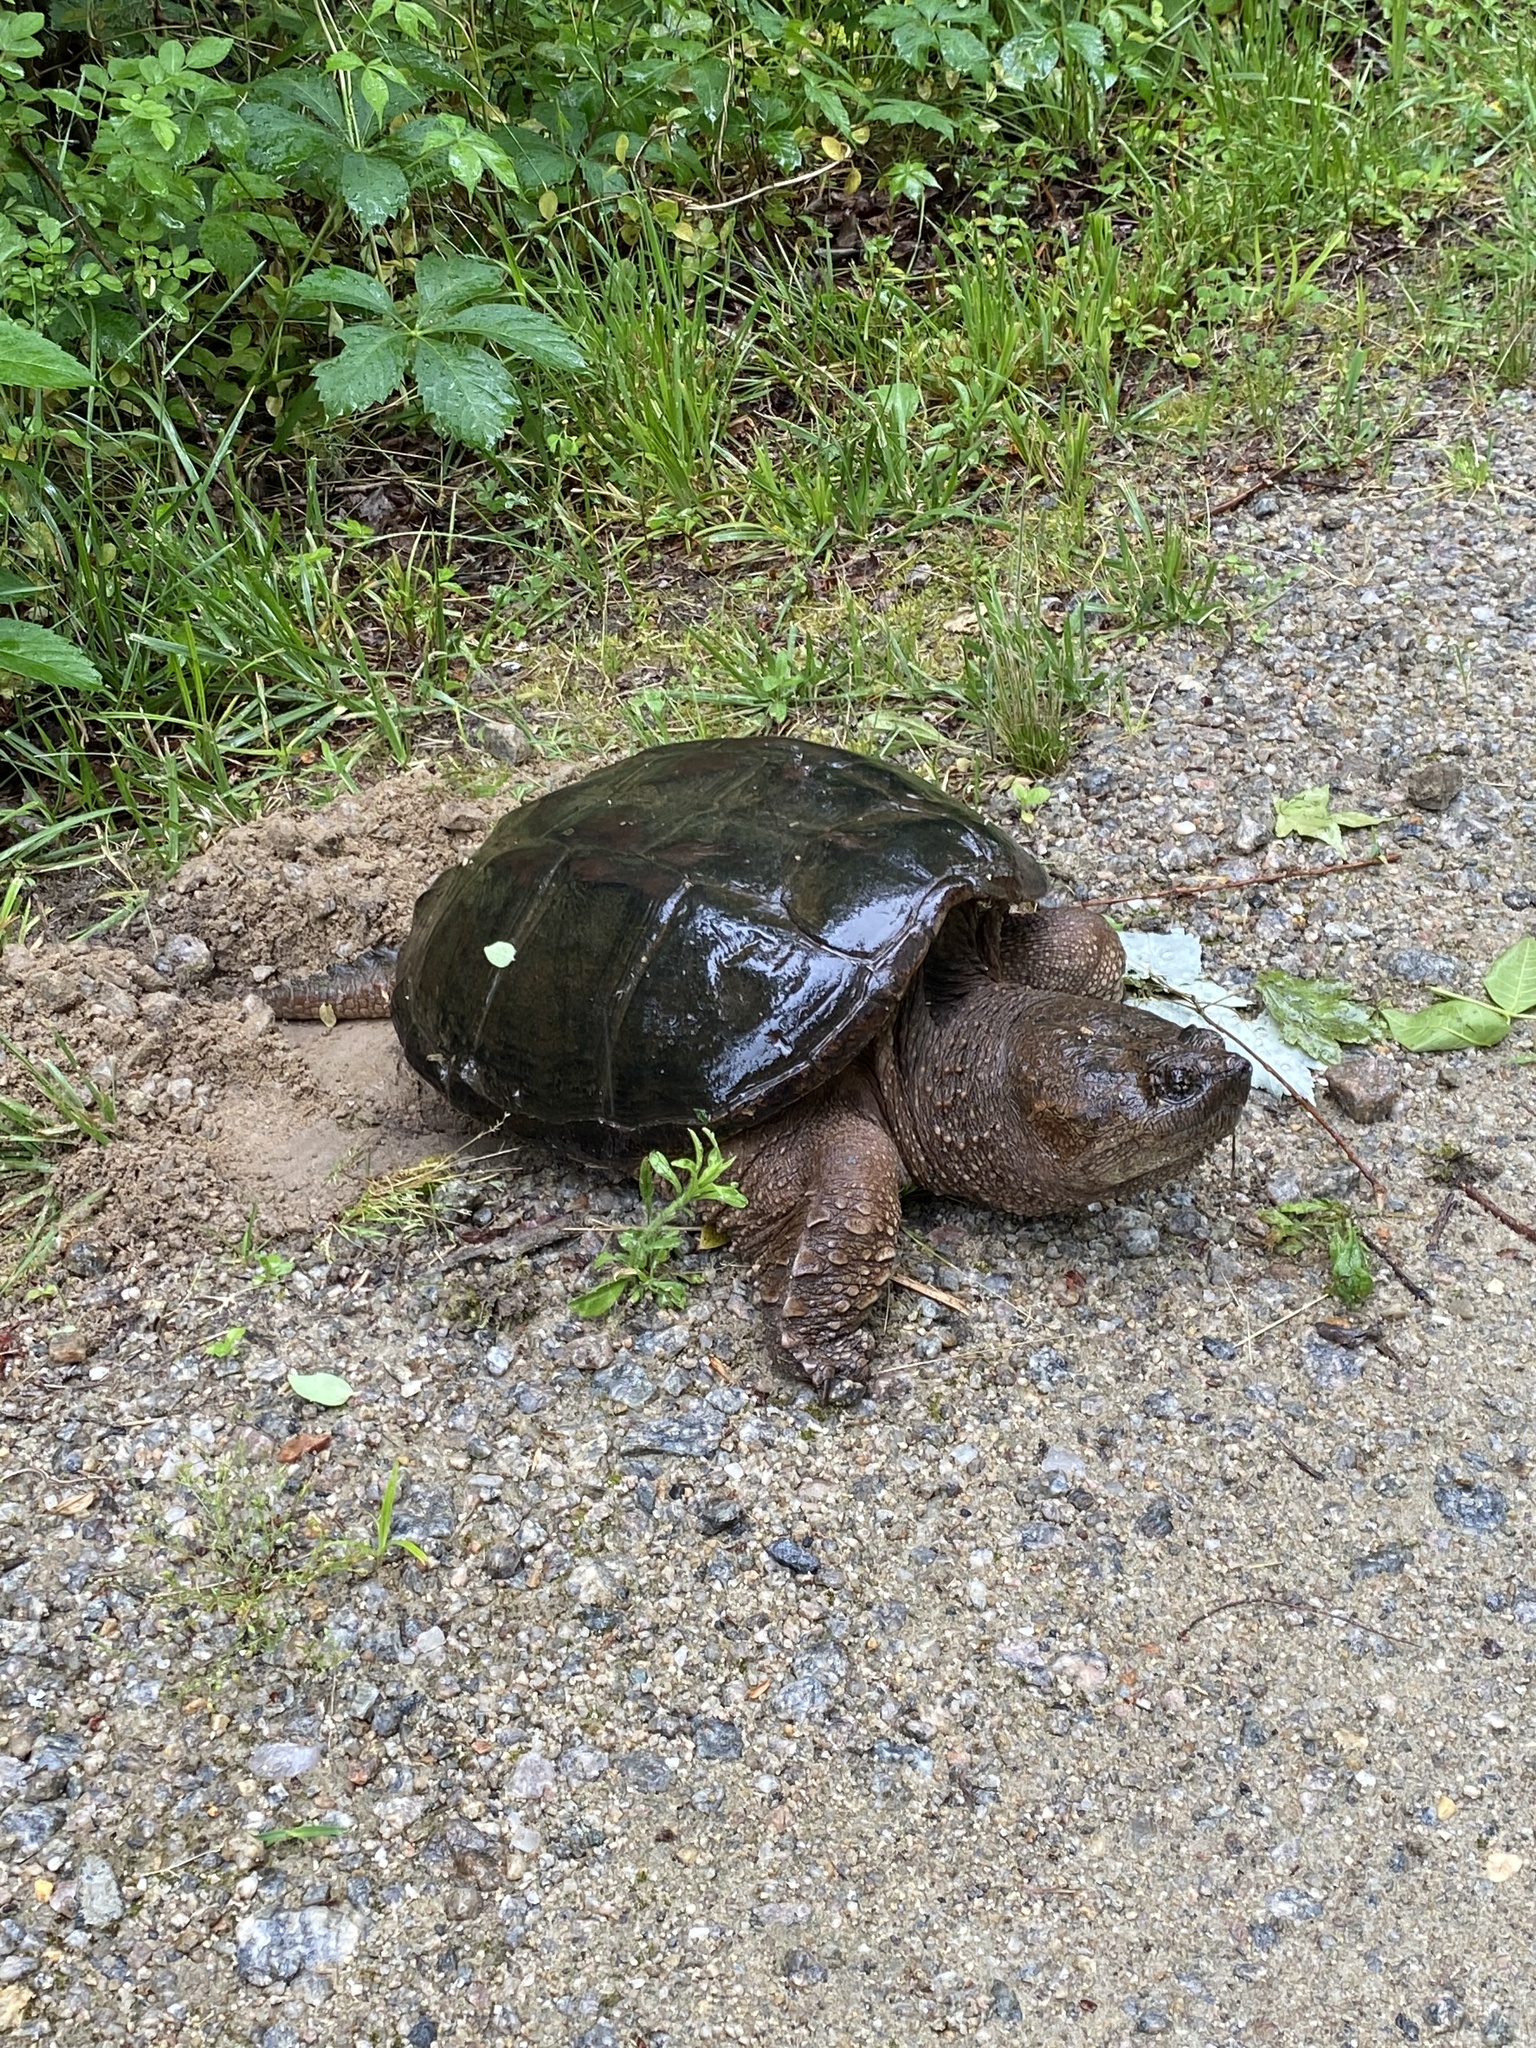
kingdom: Animalia
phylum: Chordata
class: Testudines
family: Chelydridae
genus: Chelydra
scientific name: Chelydra serpentina
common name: Common snapping turtle
